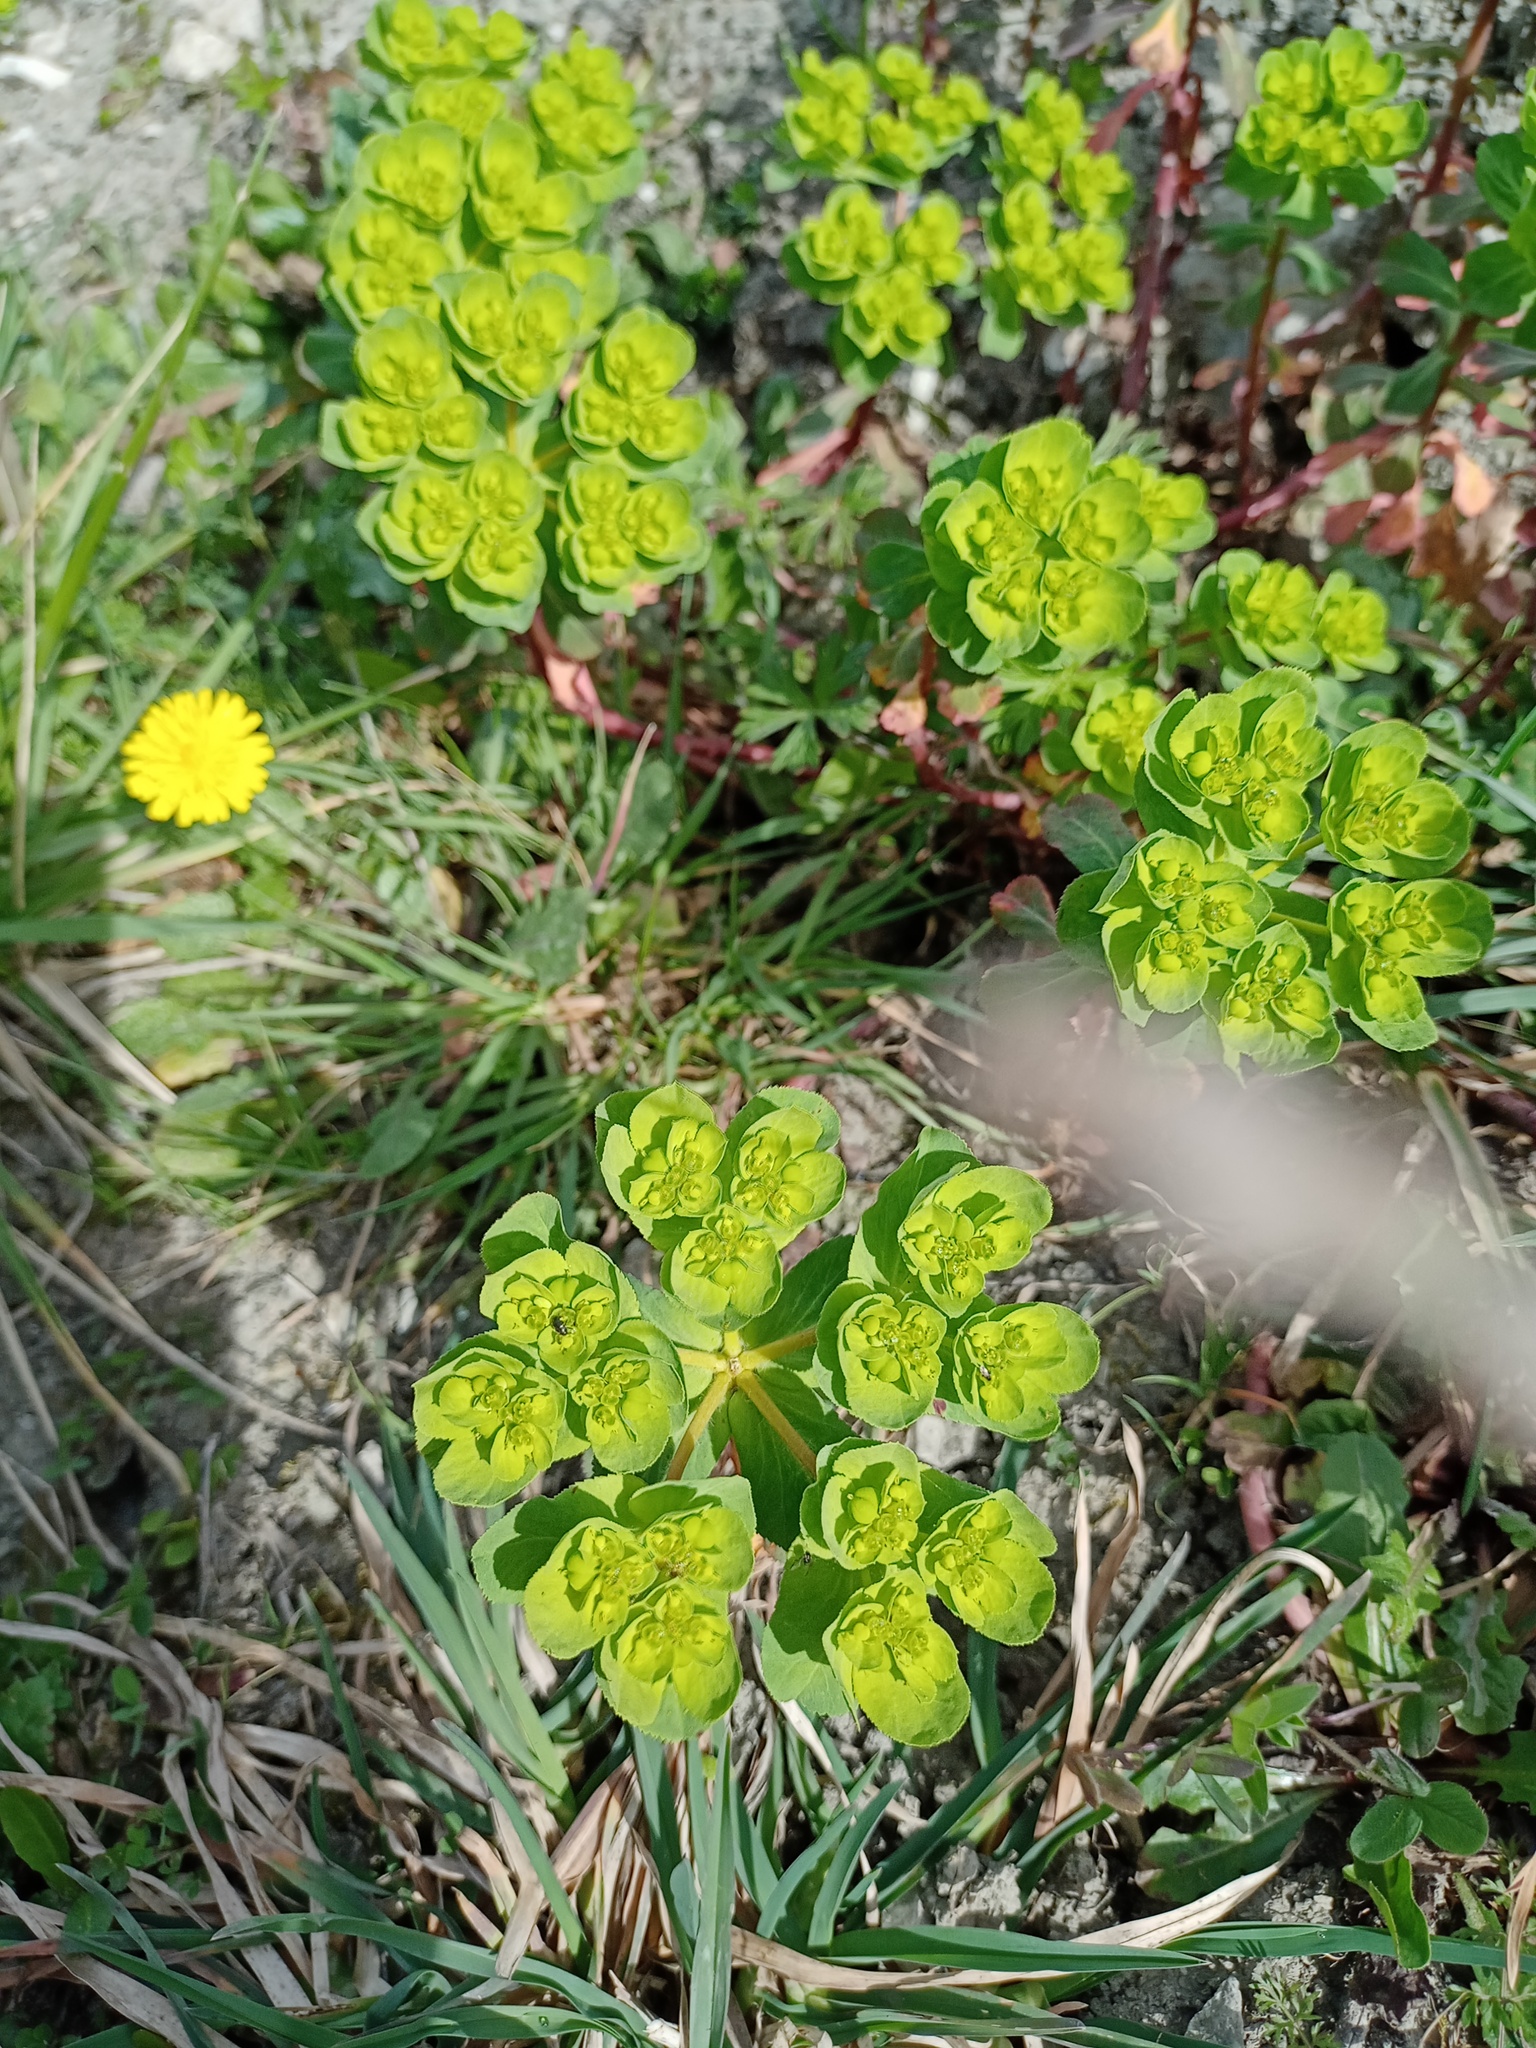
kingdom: Plantae
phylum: Tracheophyta
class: Magnoliopsida
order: Malpighiales
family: Euphorbiaceae
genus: Euphorbia
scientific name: Euphorbia helioscopia
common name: Sun spurge
